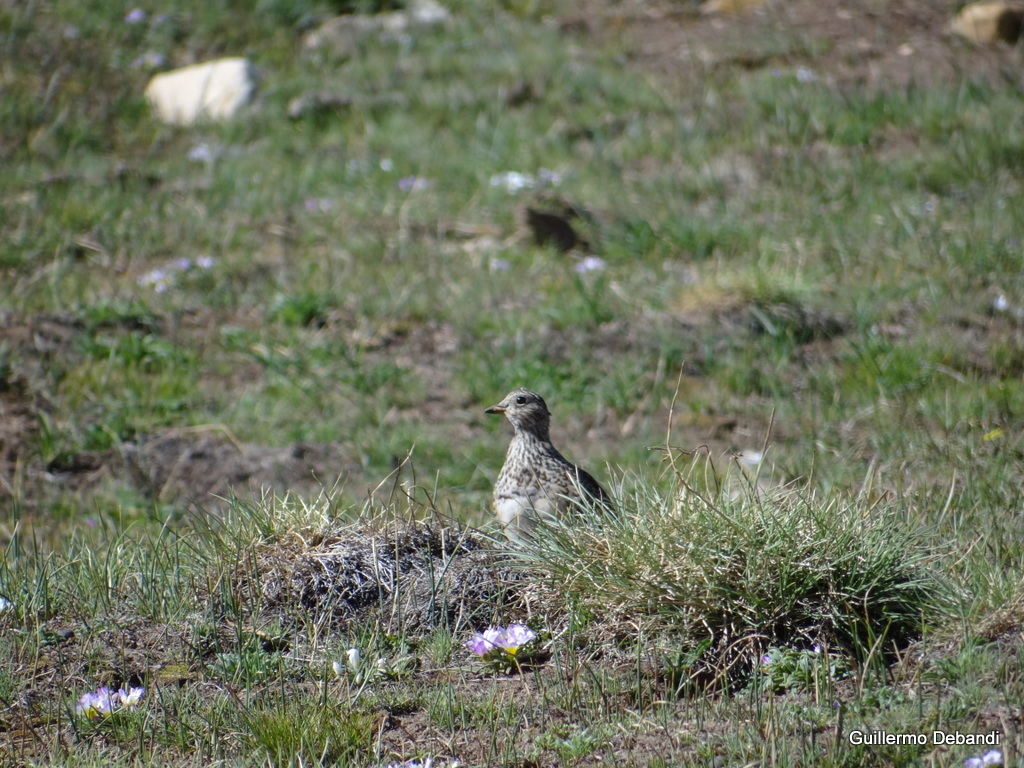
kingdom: Animalia
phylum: Chordata
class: Aves
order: Charadriiformes
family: Thinocoridae
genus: Thinocorus
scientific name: Thinocorus orbignyianus
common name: Grey-breasted seedsnipe
